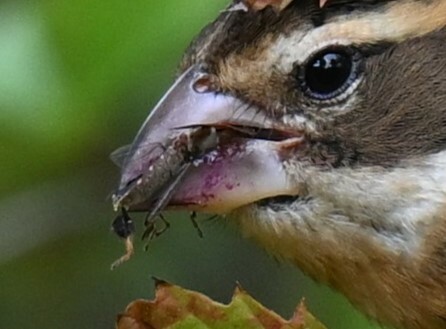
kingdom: Animalia
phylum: Arthropoda
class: Insecta
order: Hemiptera
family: Coreidae
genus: Leptoglossus
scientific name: Leptoglossus oppositus
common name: Northern leaf-footed bug
